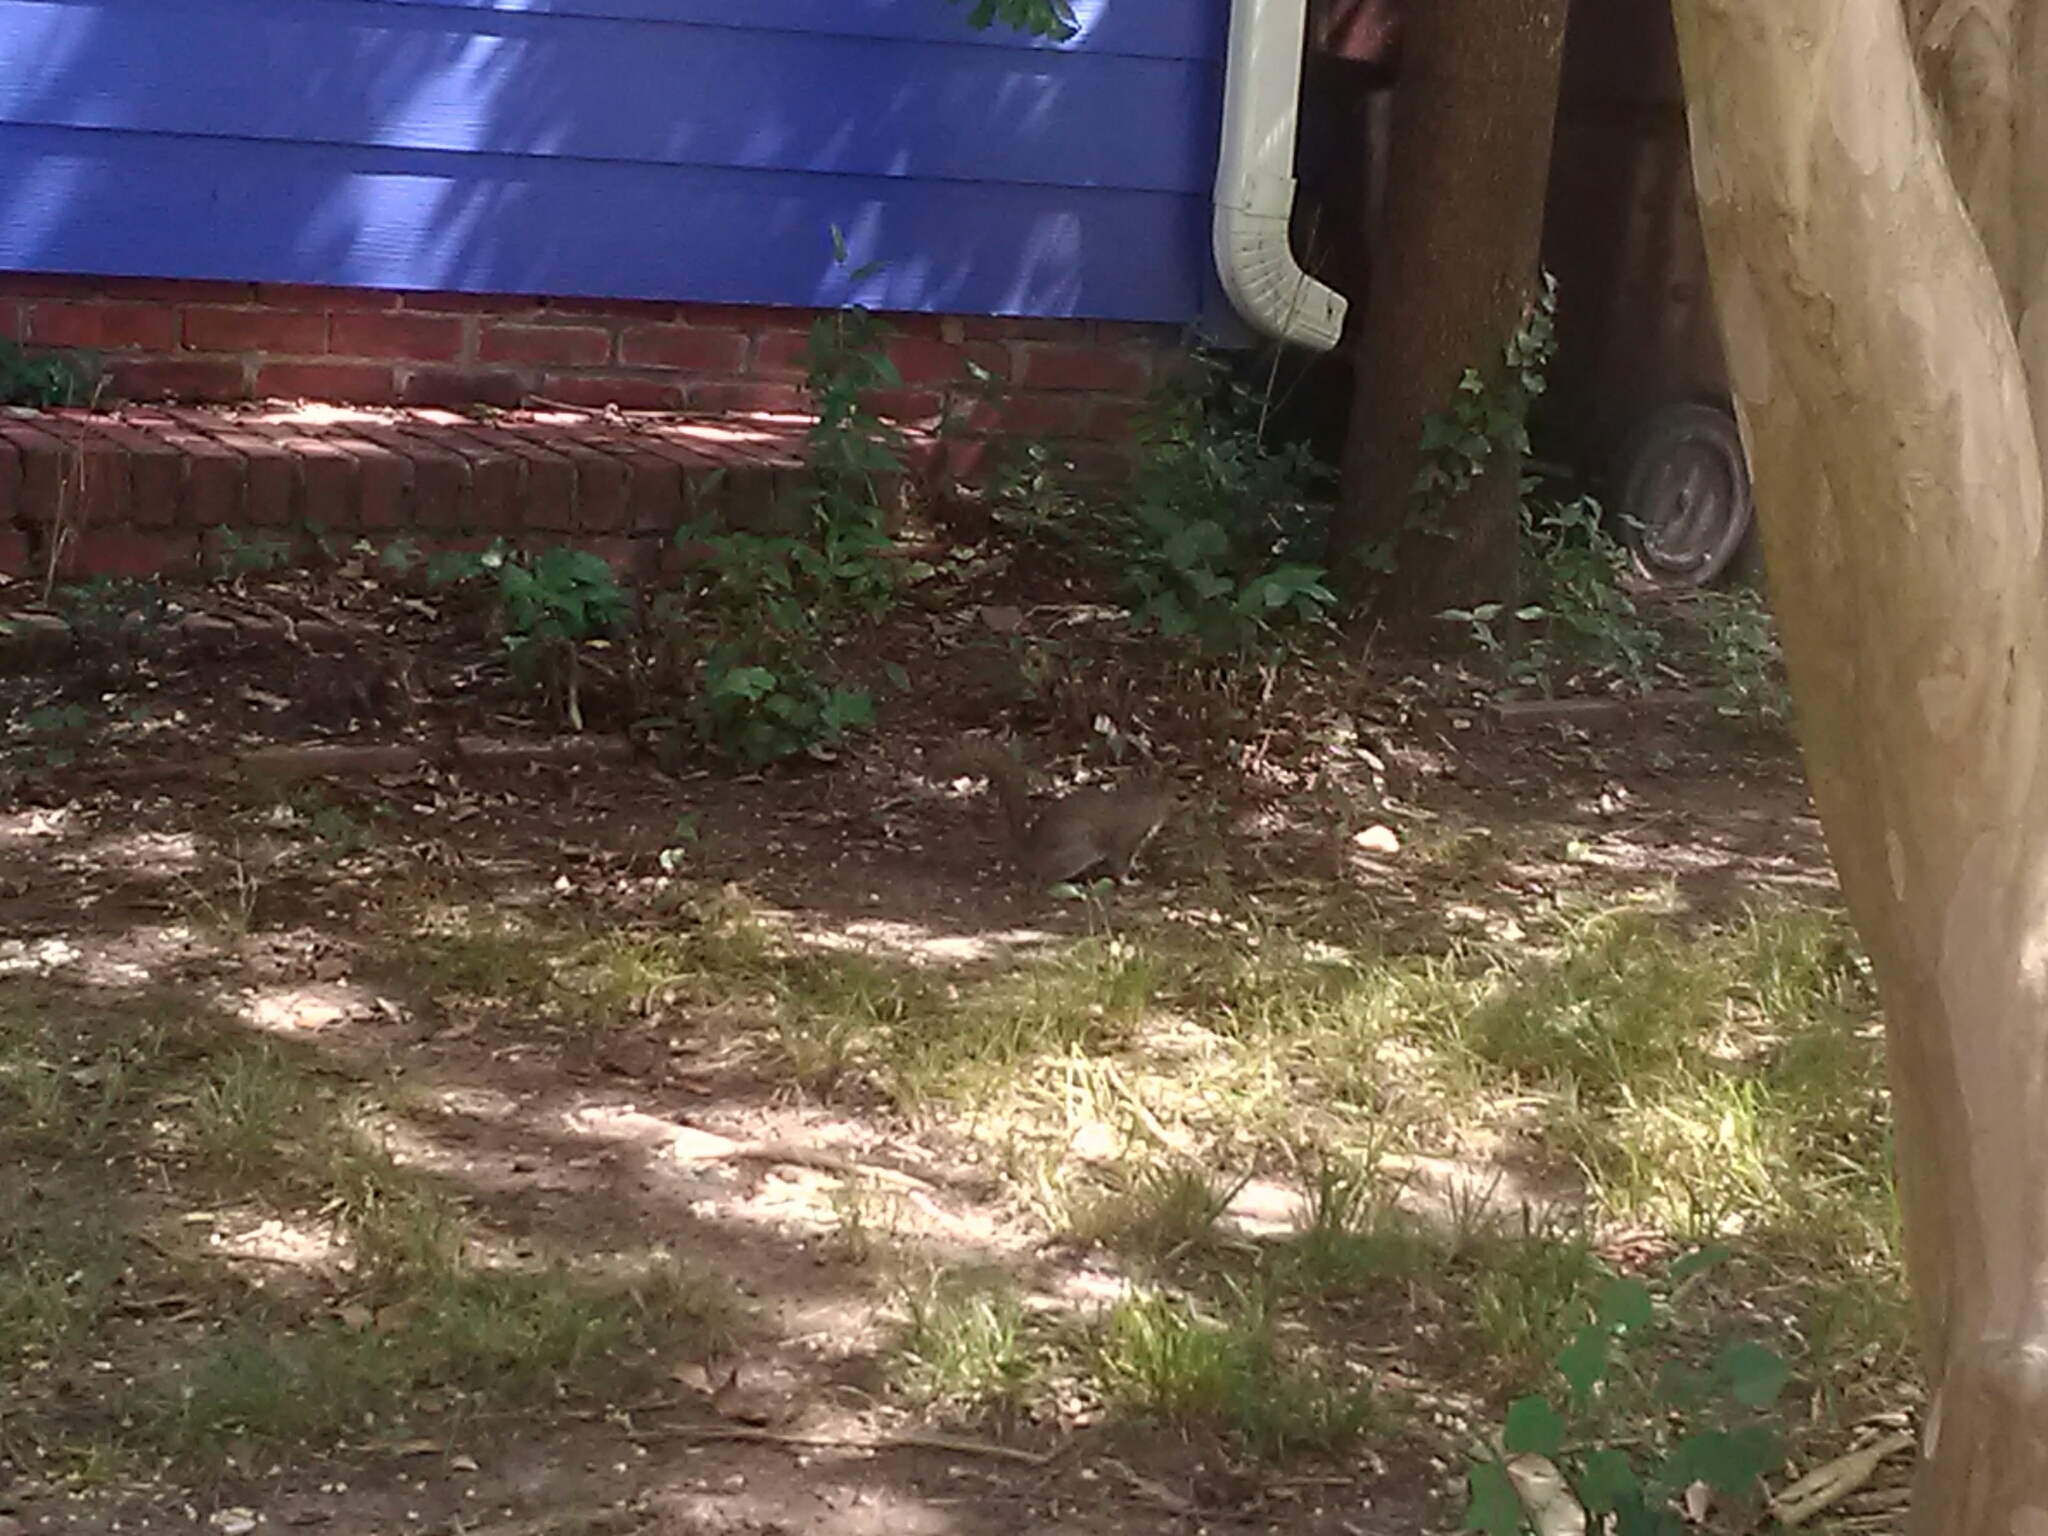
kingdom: Animalia
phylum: Chordata
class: Mammalia
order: Rodentia
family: Sciuridae
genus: Sciurus
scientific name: Sciurus carolinensis
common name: Eastern gray squirrel
